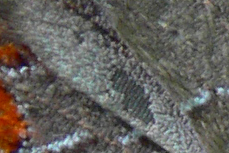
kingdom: Animalia
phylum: Arthropoda
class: Insecta
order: Lepidoptera
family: Lycaenidae
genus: Parrhasius
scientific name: Parrhasius m-album
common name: White m hairstreak
